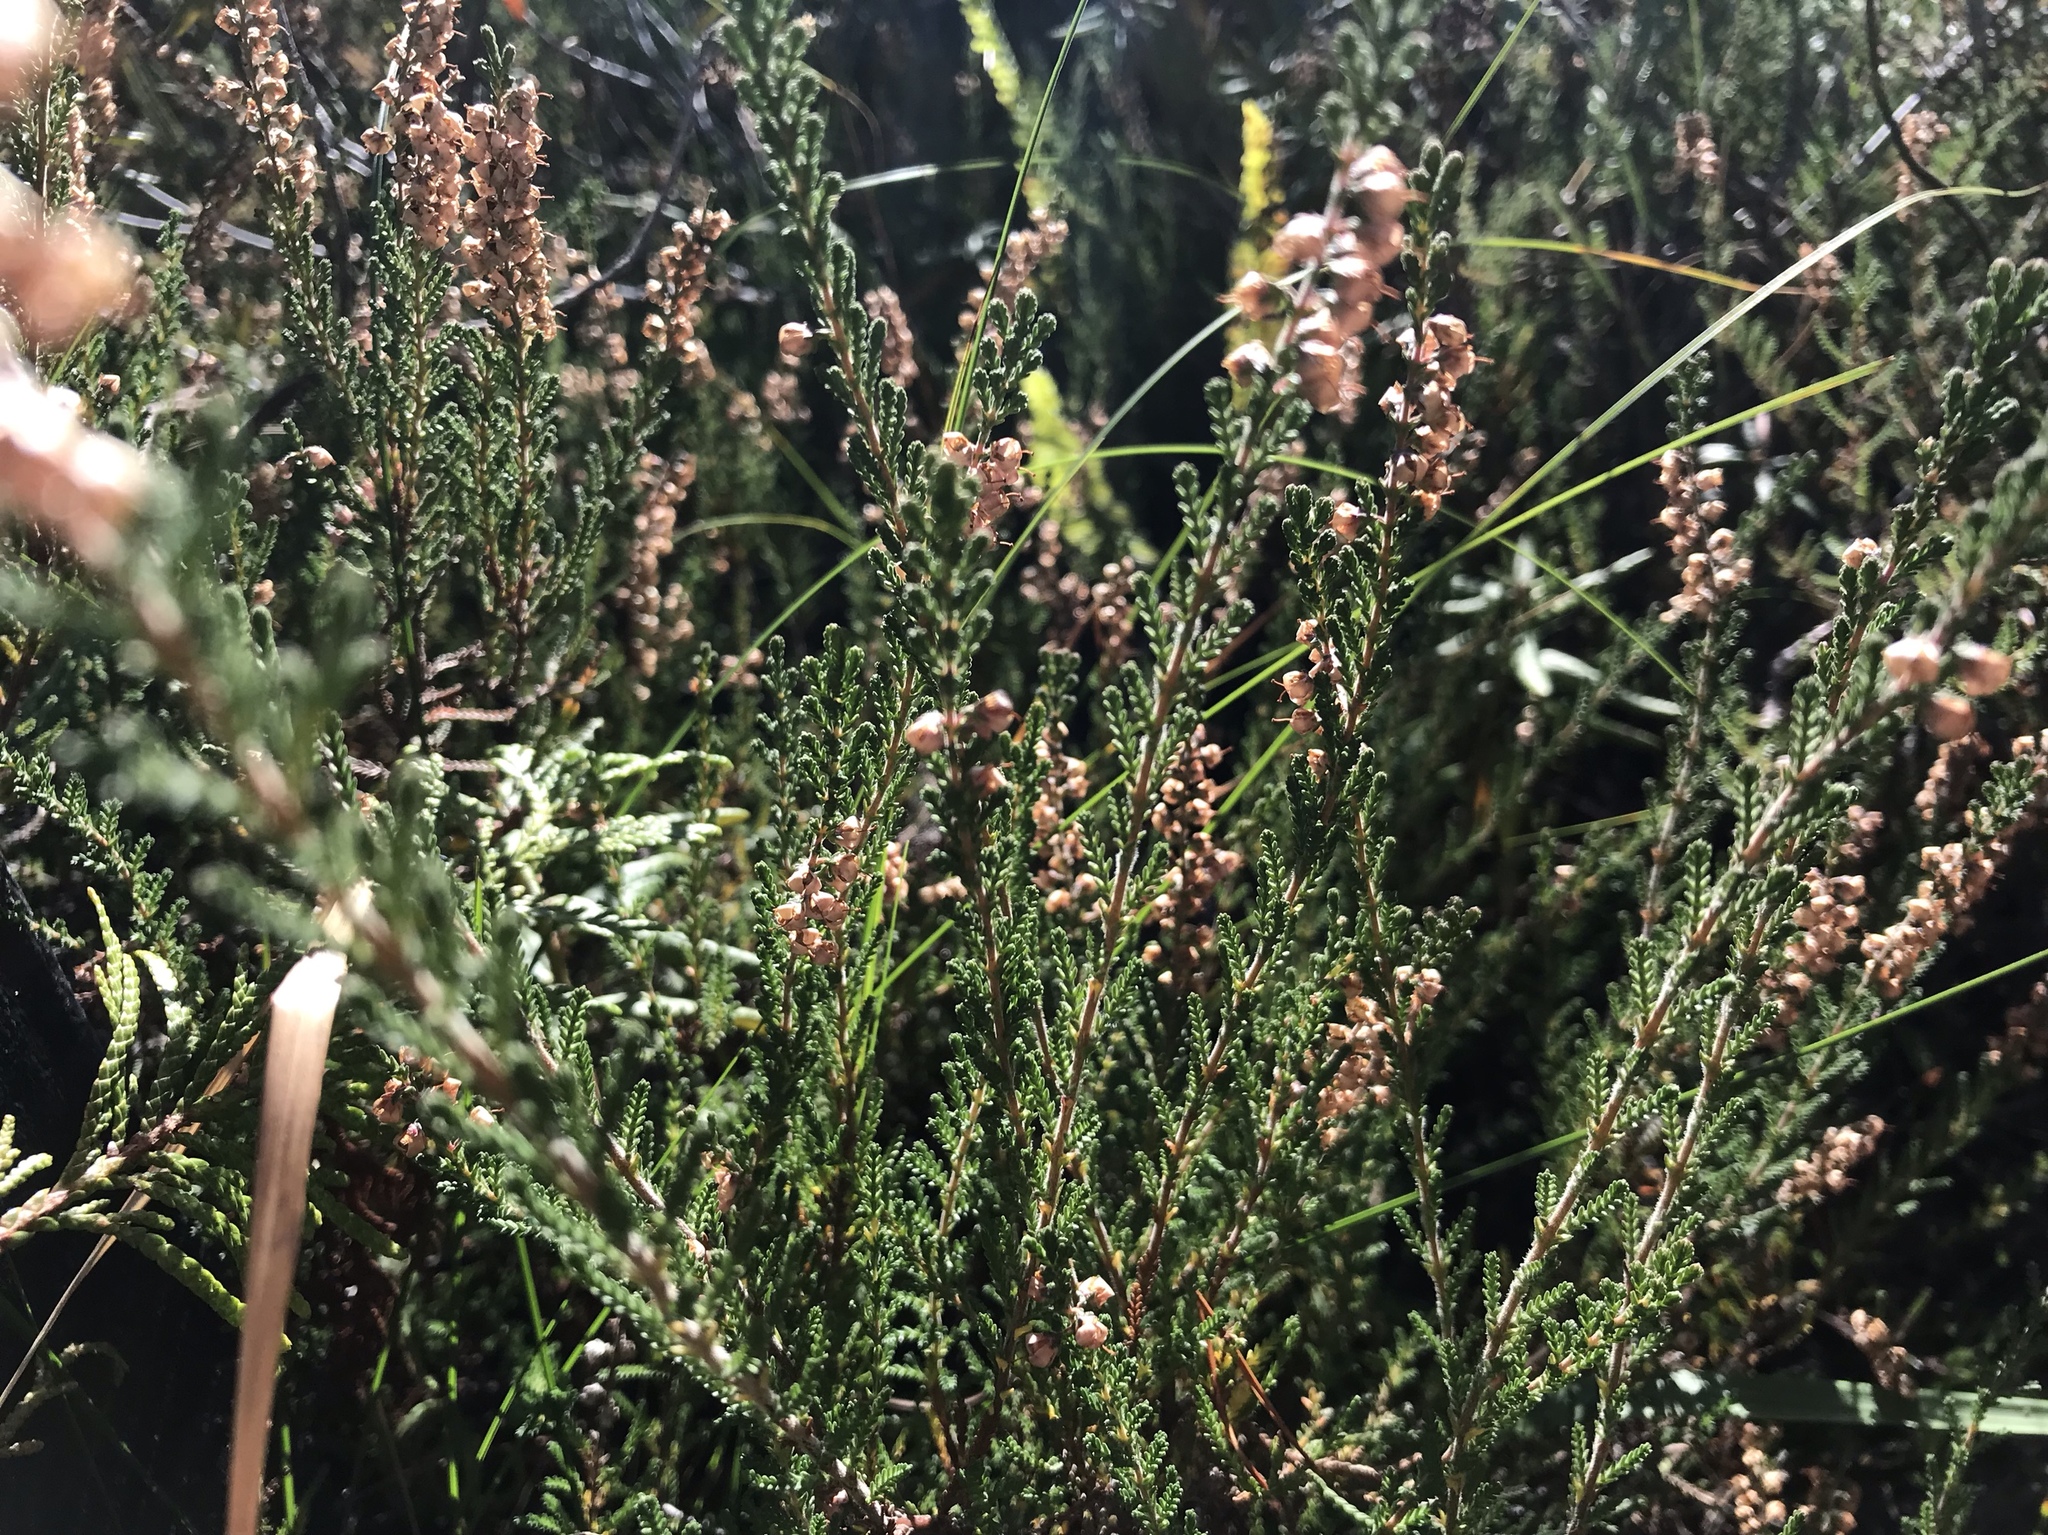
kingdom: Plantae
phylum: Tracheophyta
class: Magnoliopsida
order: Ericales
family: Ericaceae
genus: Calluna
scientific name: Calluna vulgaris
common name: Heather
